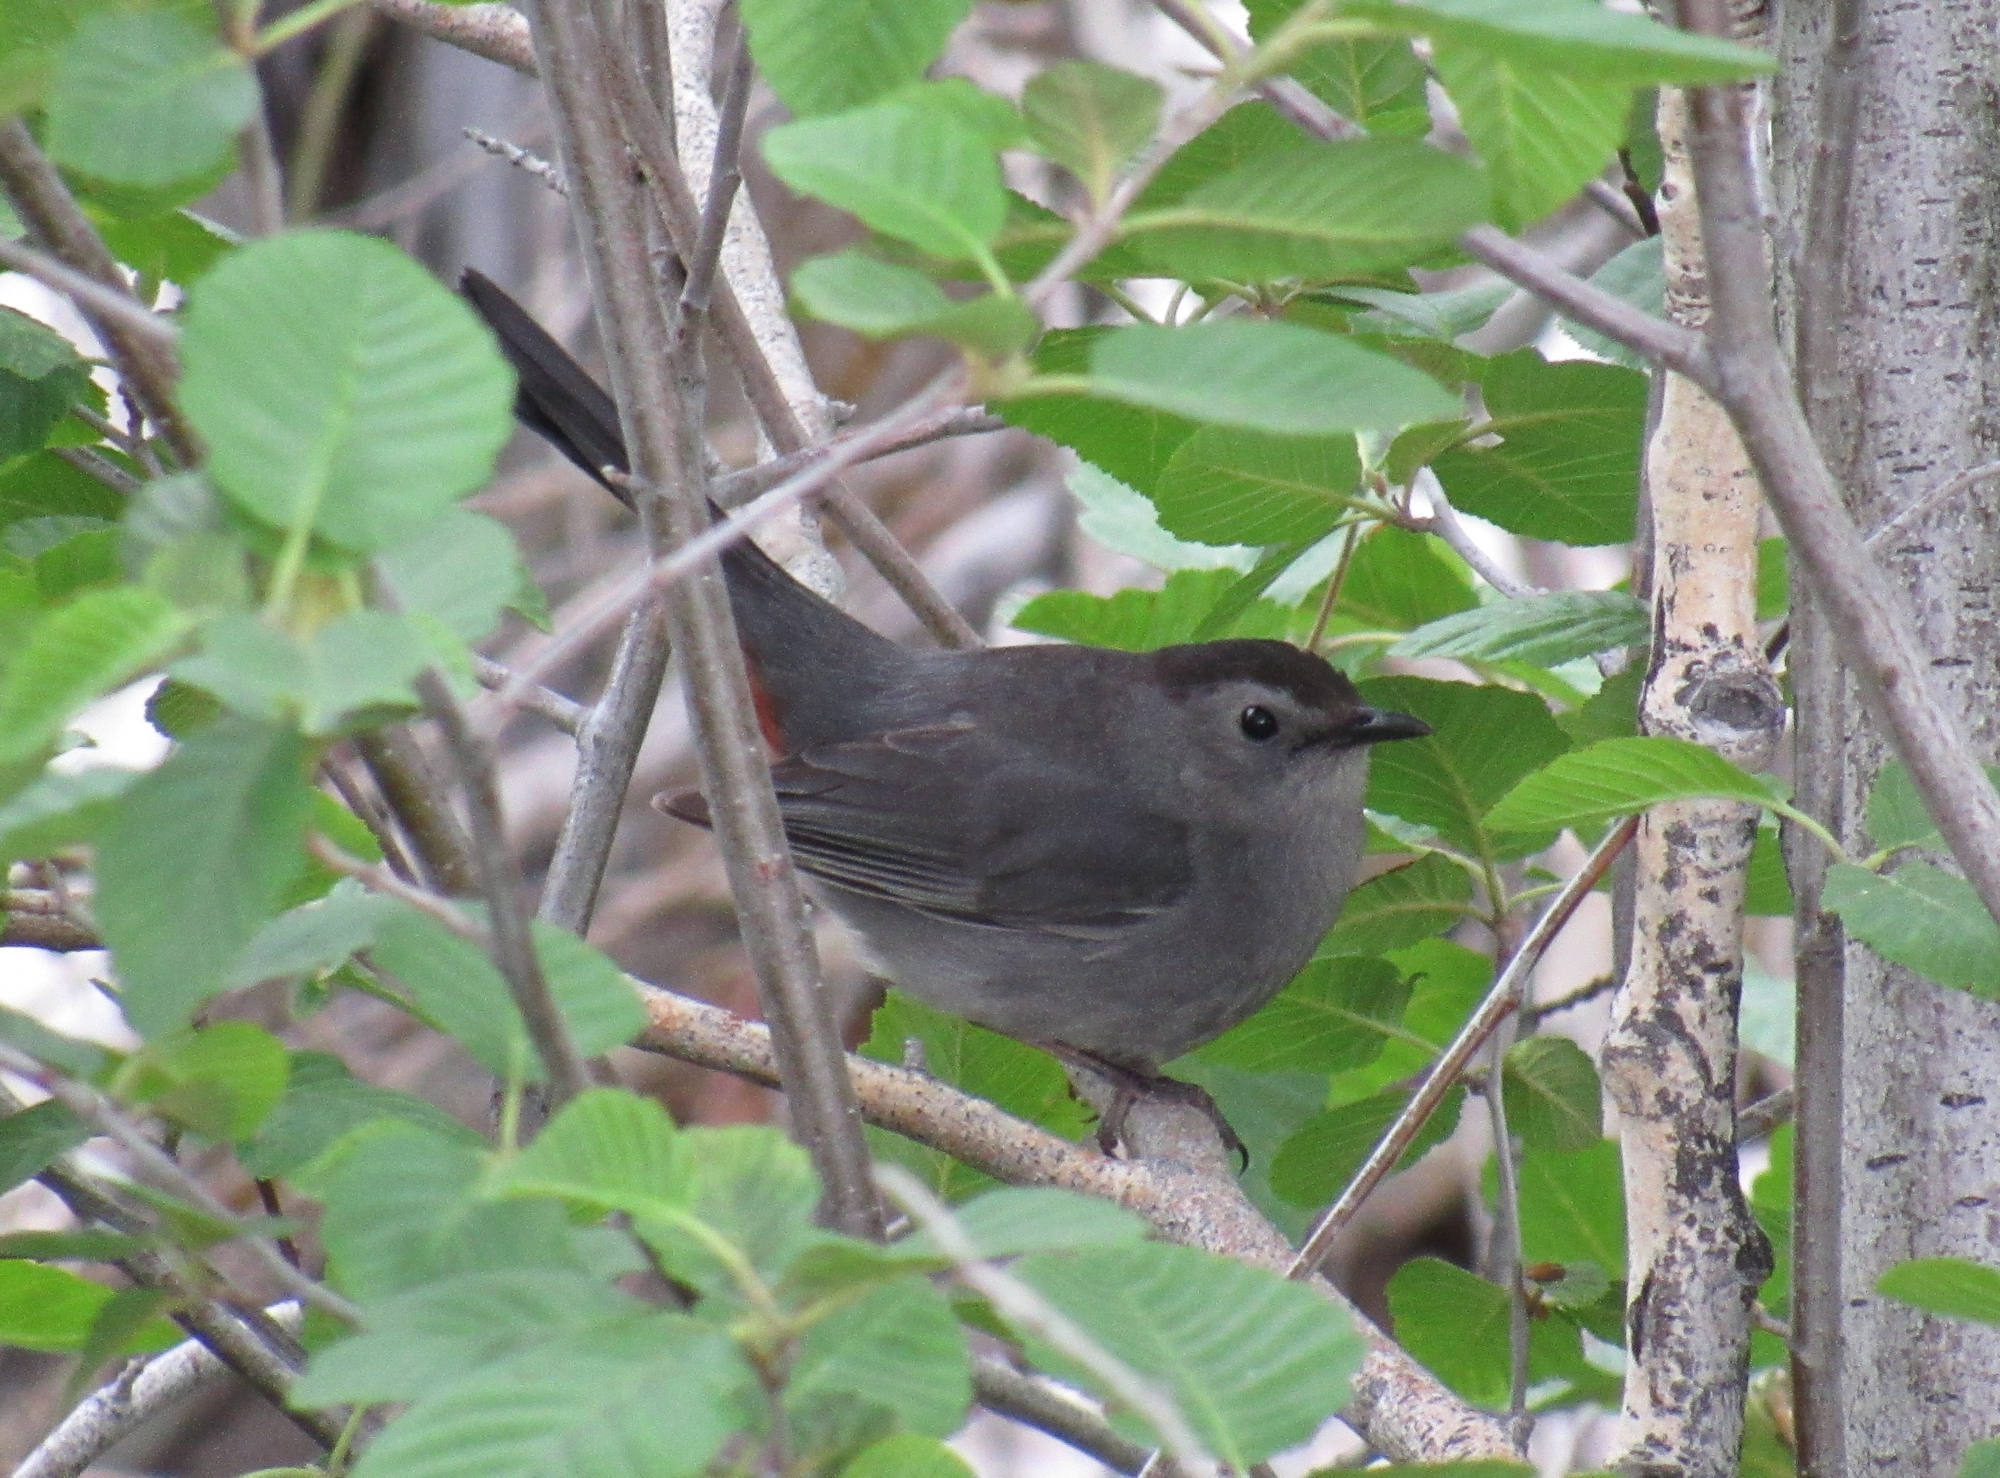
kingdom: Animalia
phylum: Chordata
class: Aves
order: Passeriformes
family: Mimidae
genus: Dumetella
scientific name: Dumetella carolinensis
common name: Gray catbird
